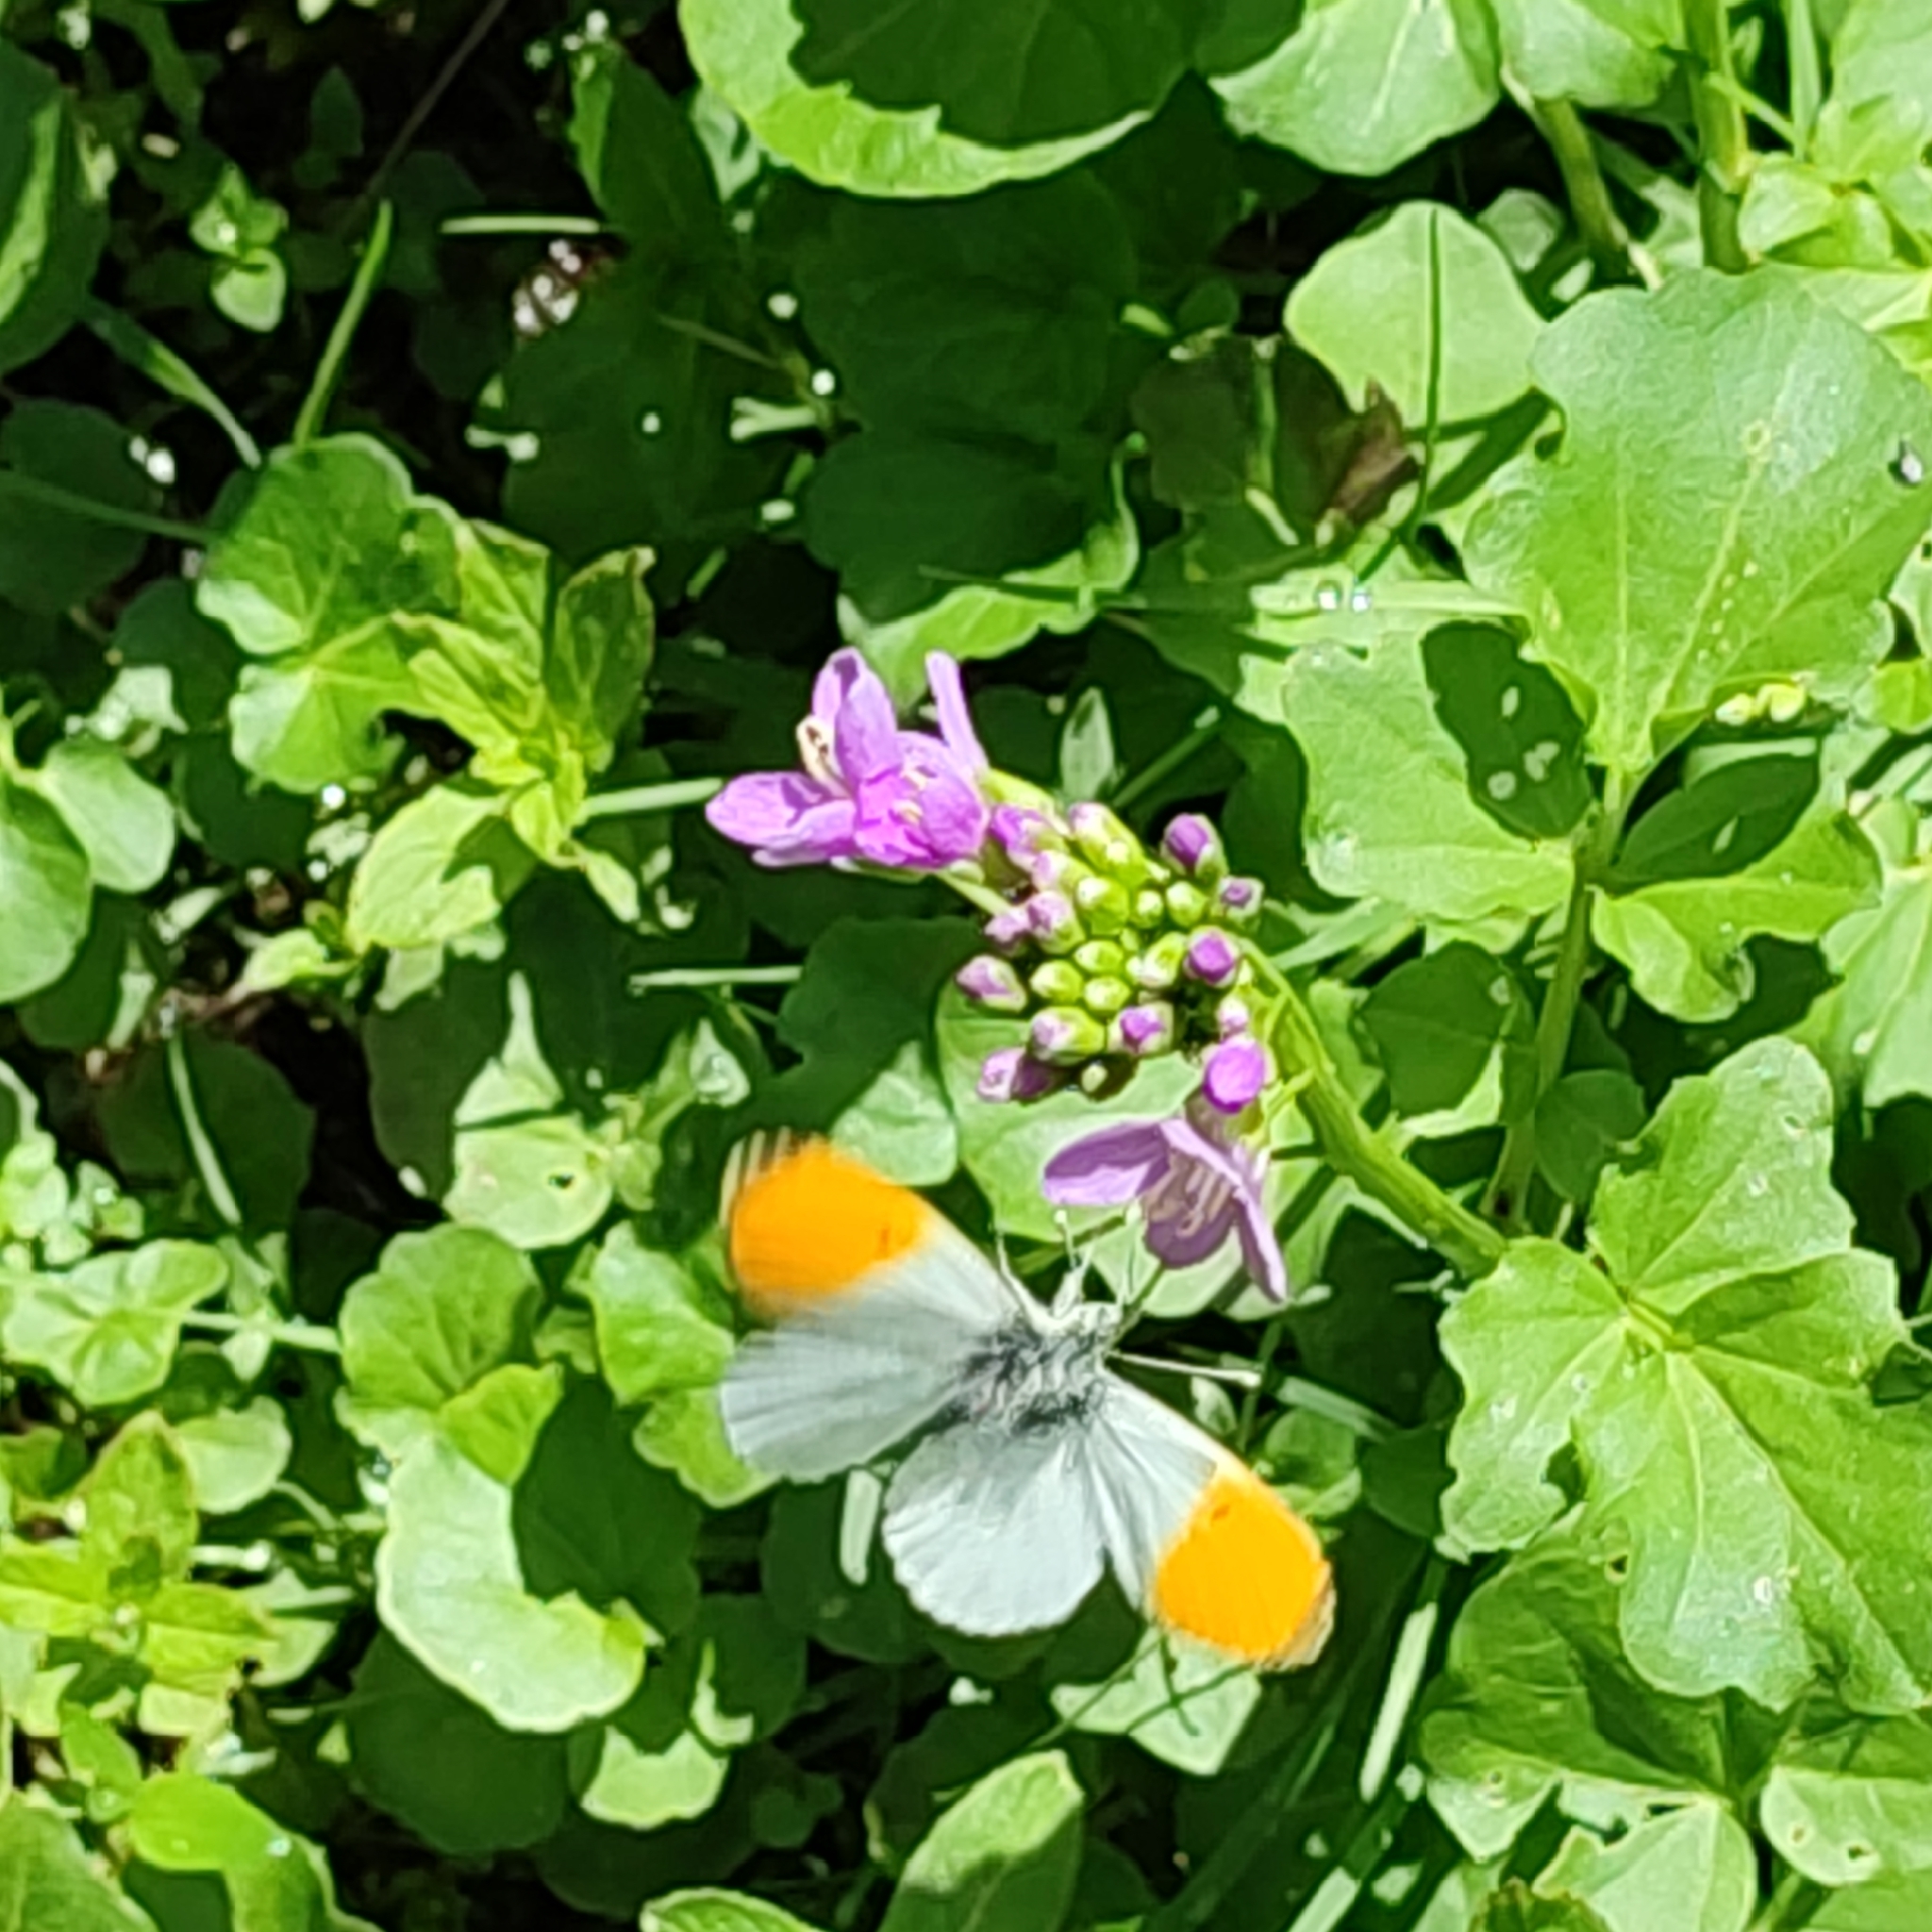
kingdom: Animalia
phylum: Arthropoda
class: Insecta
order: Lepidoptera
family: Pieridae
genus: Anthocharis
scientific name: Anthocharis cardamines
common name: Orange-tip
